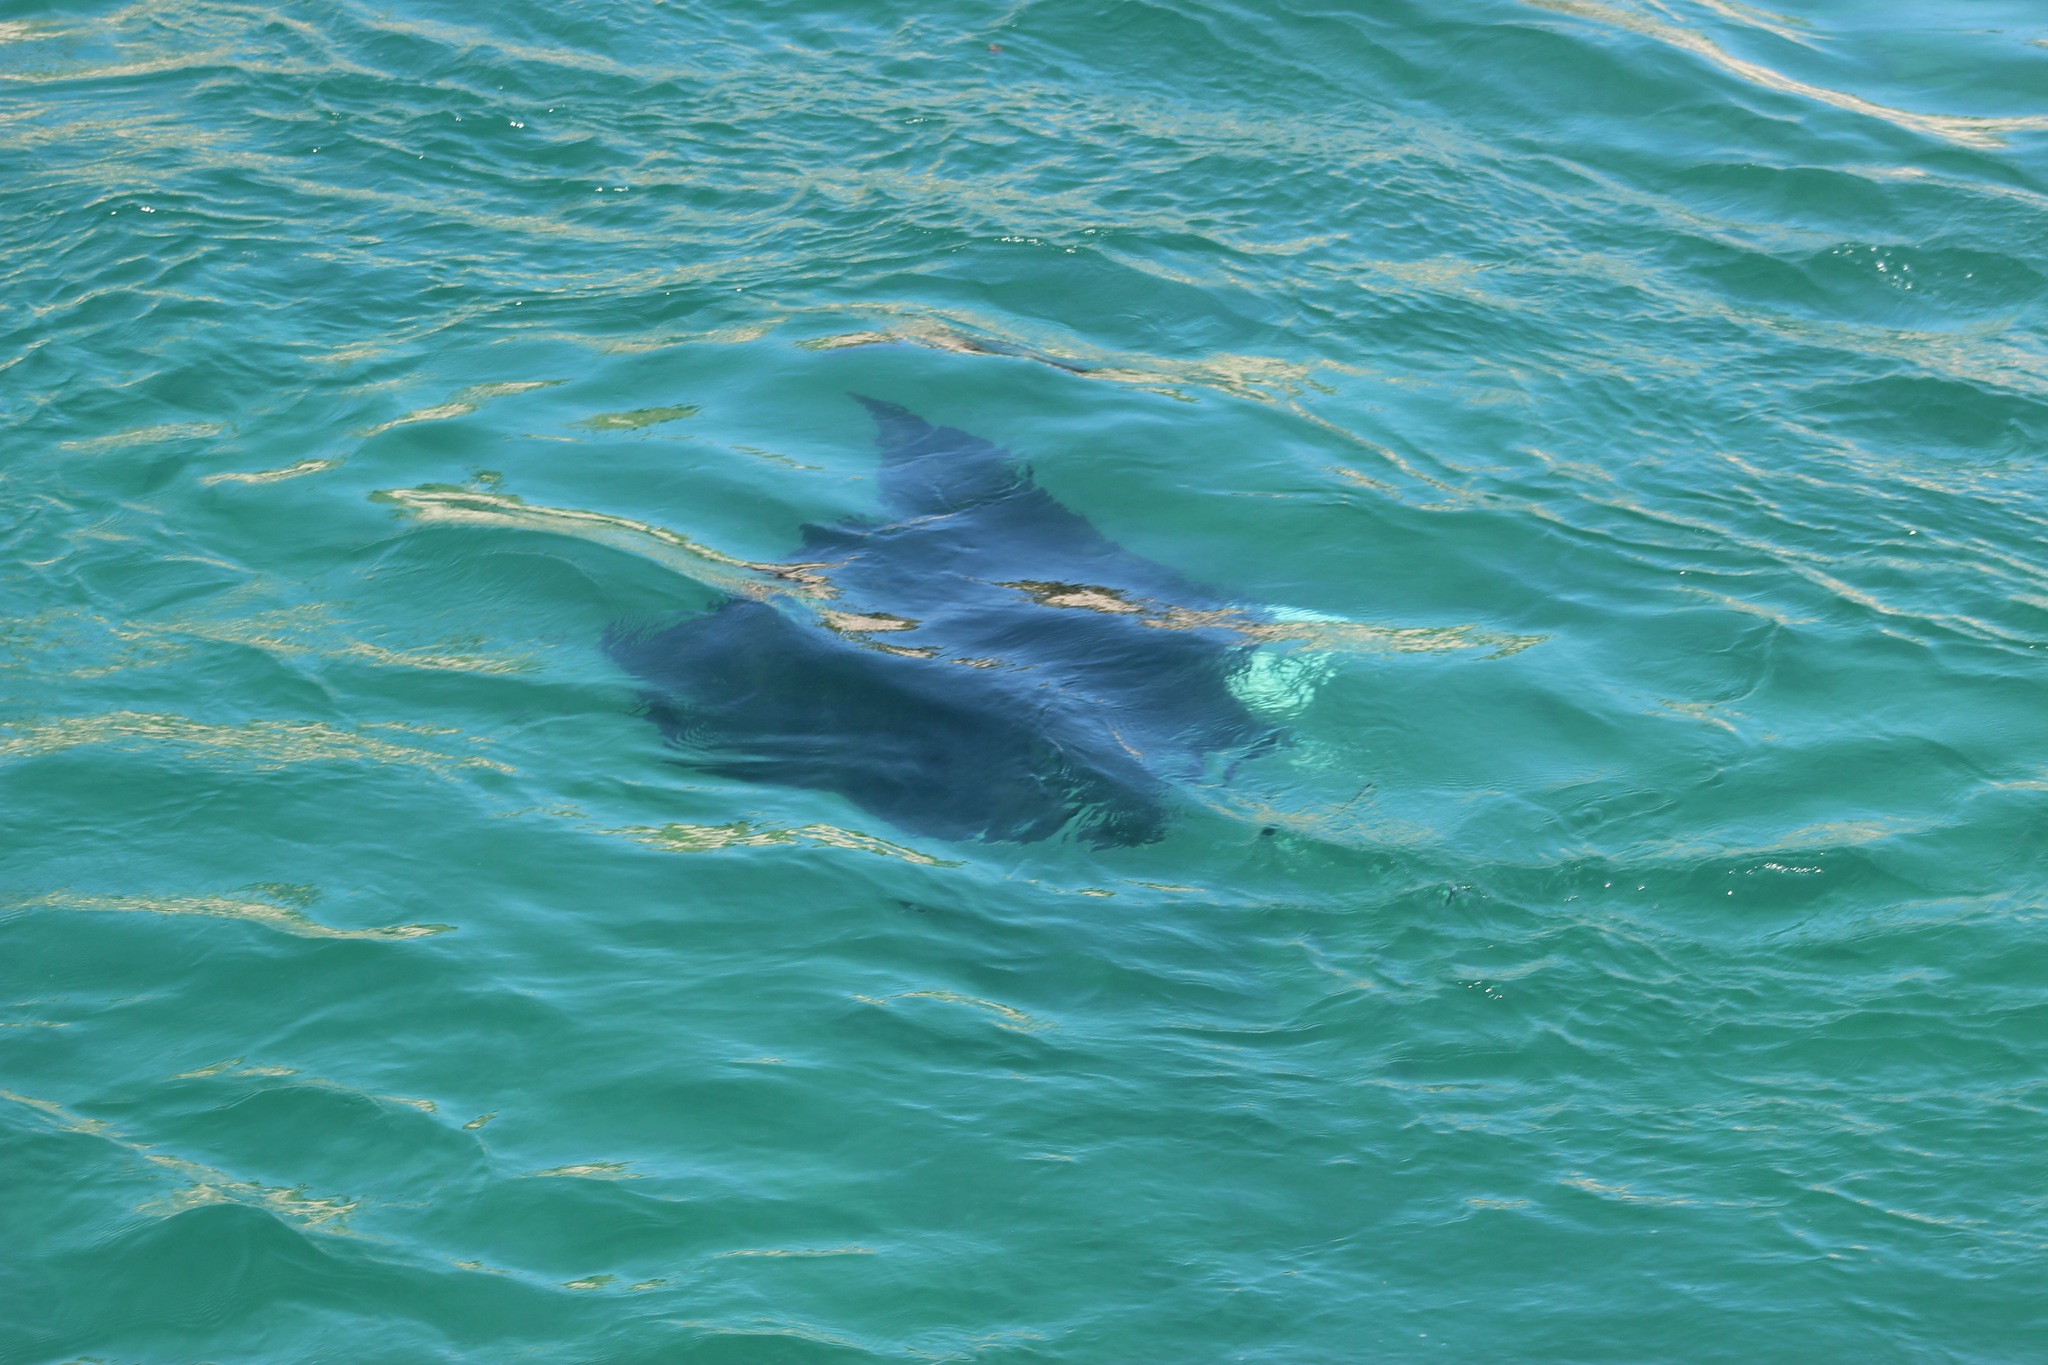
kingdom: Animalia
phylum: Chordata
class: Elasmobranchii
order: Myliobatiformes
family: Myliobatidae
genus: Mobula
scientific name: Mobula birostris
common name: Manta ray
